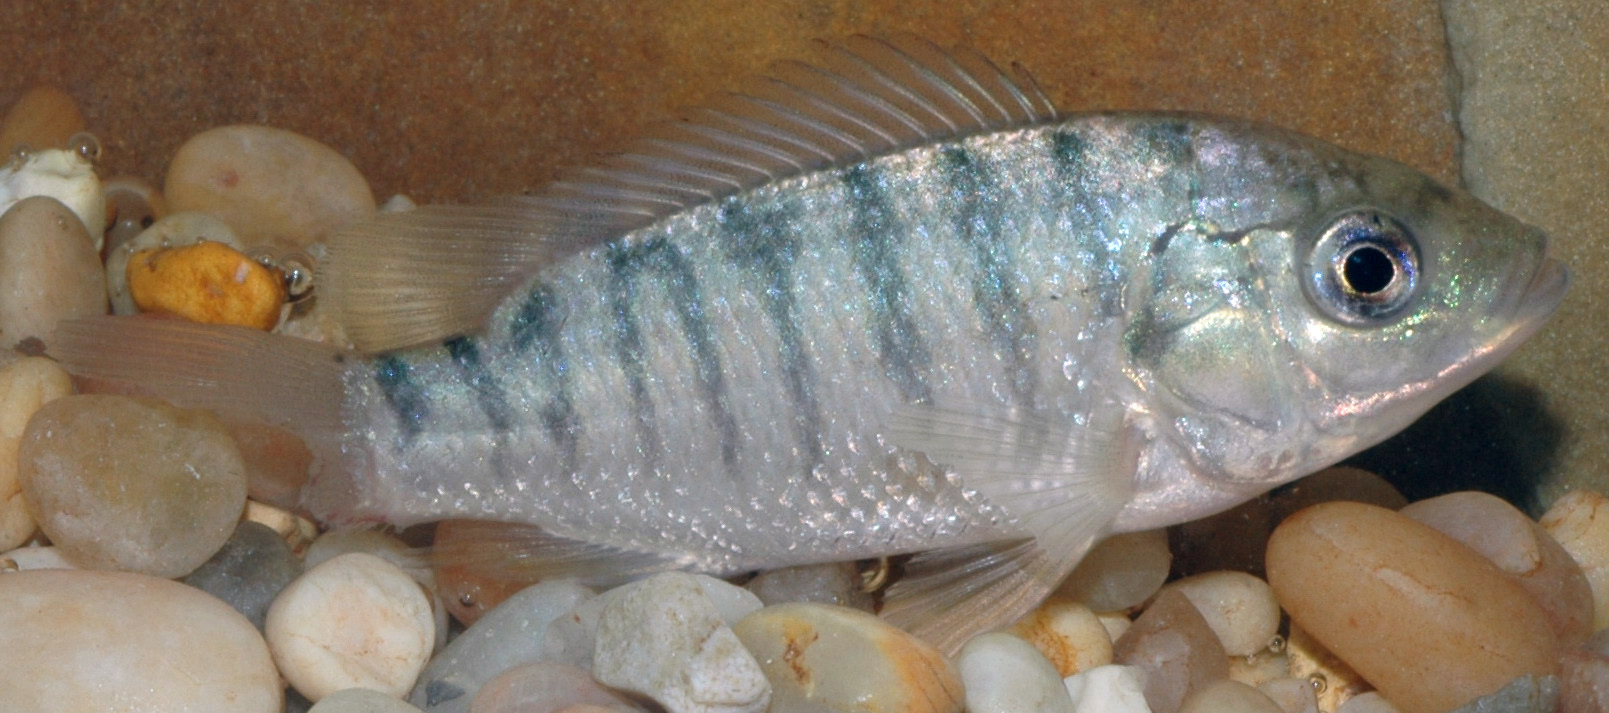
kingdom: Animalia
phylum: Chordata
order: Perciformes
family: Cichlidae
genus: Oreochromis
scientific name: Oreochromis aureus
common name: Blue tilapia
